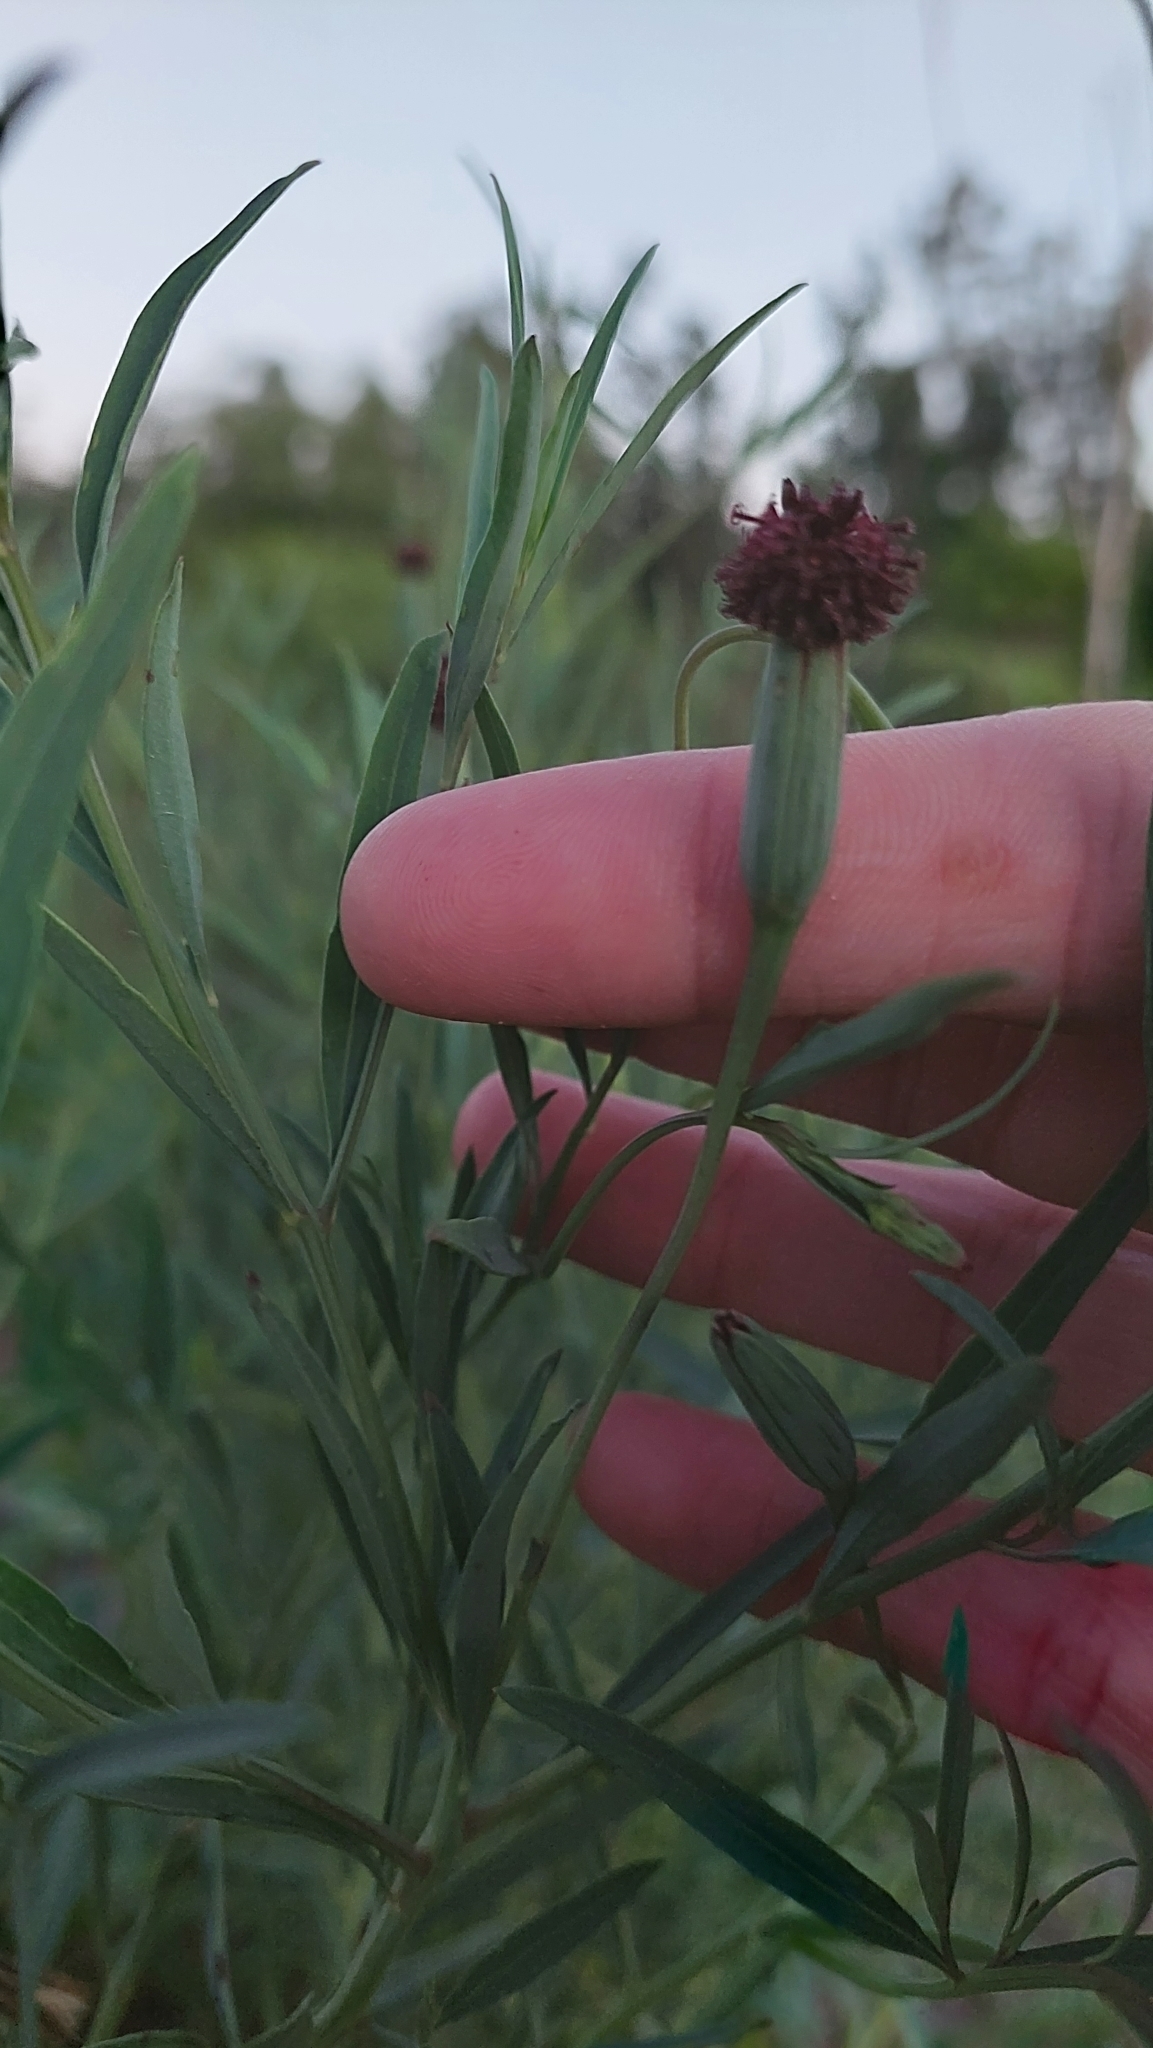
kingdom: Plantae
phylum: Tracheophyta
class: Magnoliopsida
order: Asterales
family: Asteraceae
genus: Porophyllum
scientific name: Porophyllum lanceolatum
